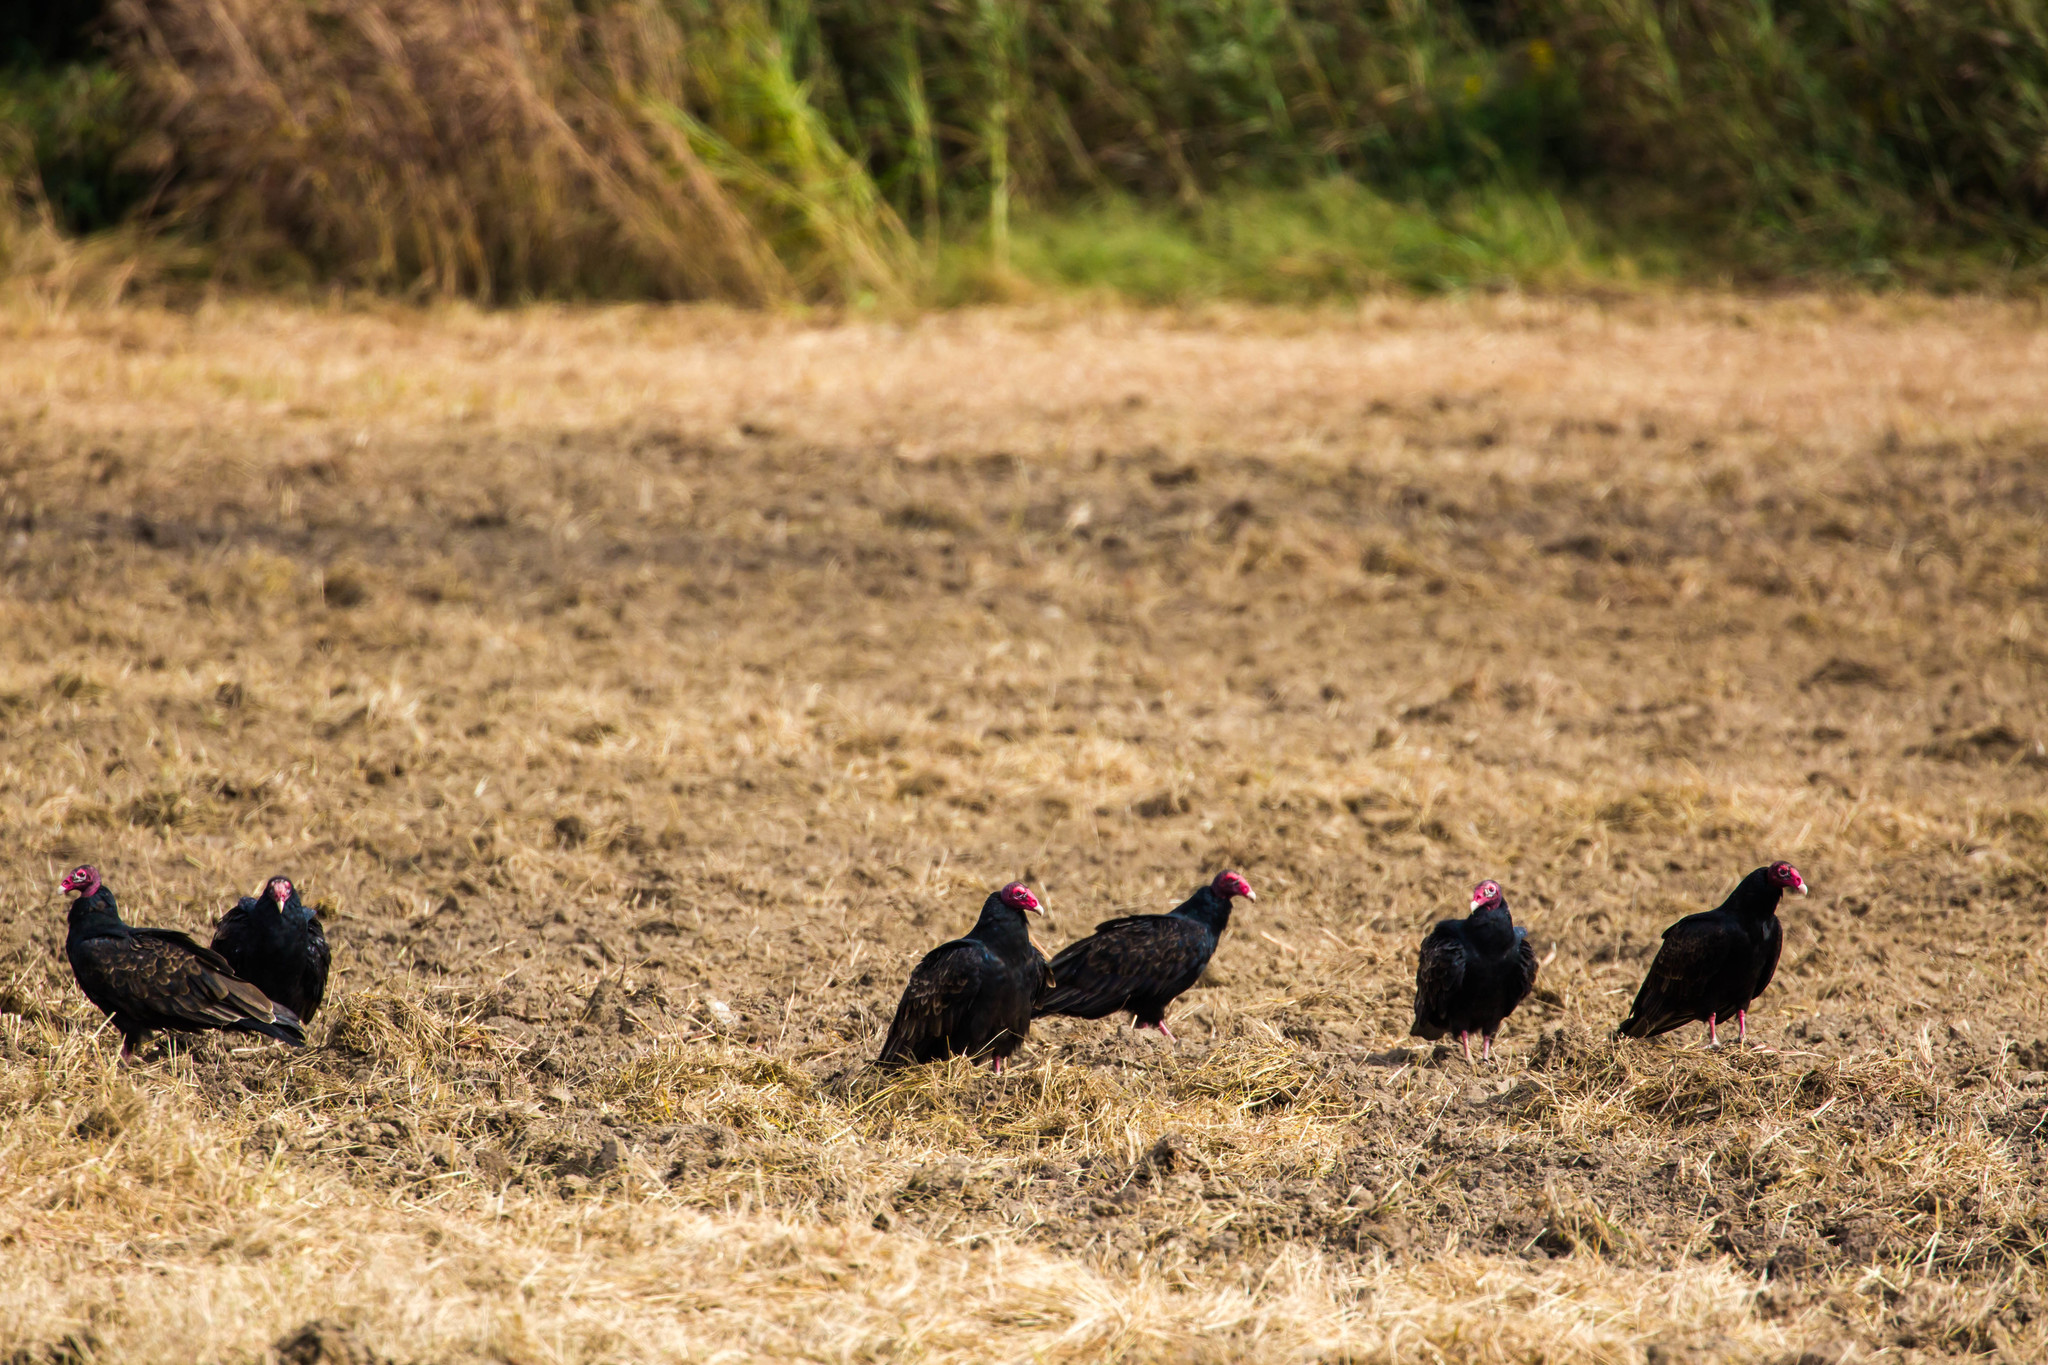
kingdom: Animalia
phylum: Chordata
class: Aves
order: Accipitriformes
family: Cathartidae
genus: Cathartes
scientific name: Cathartes aura
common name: Turkey vulture
